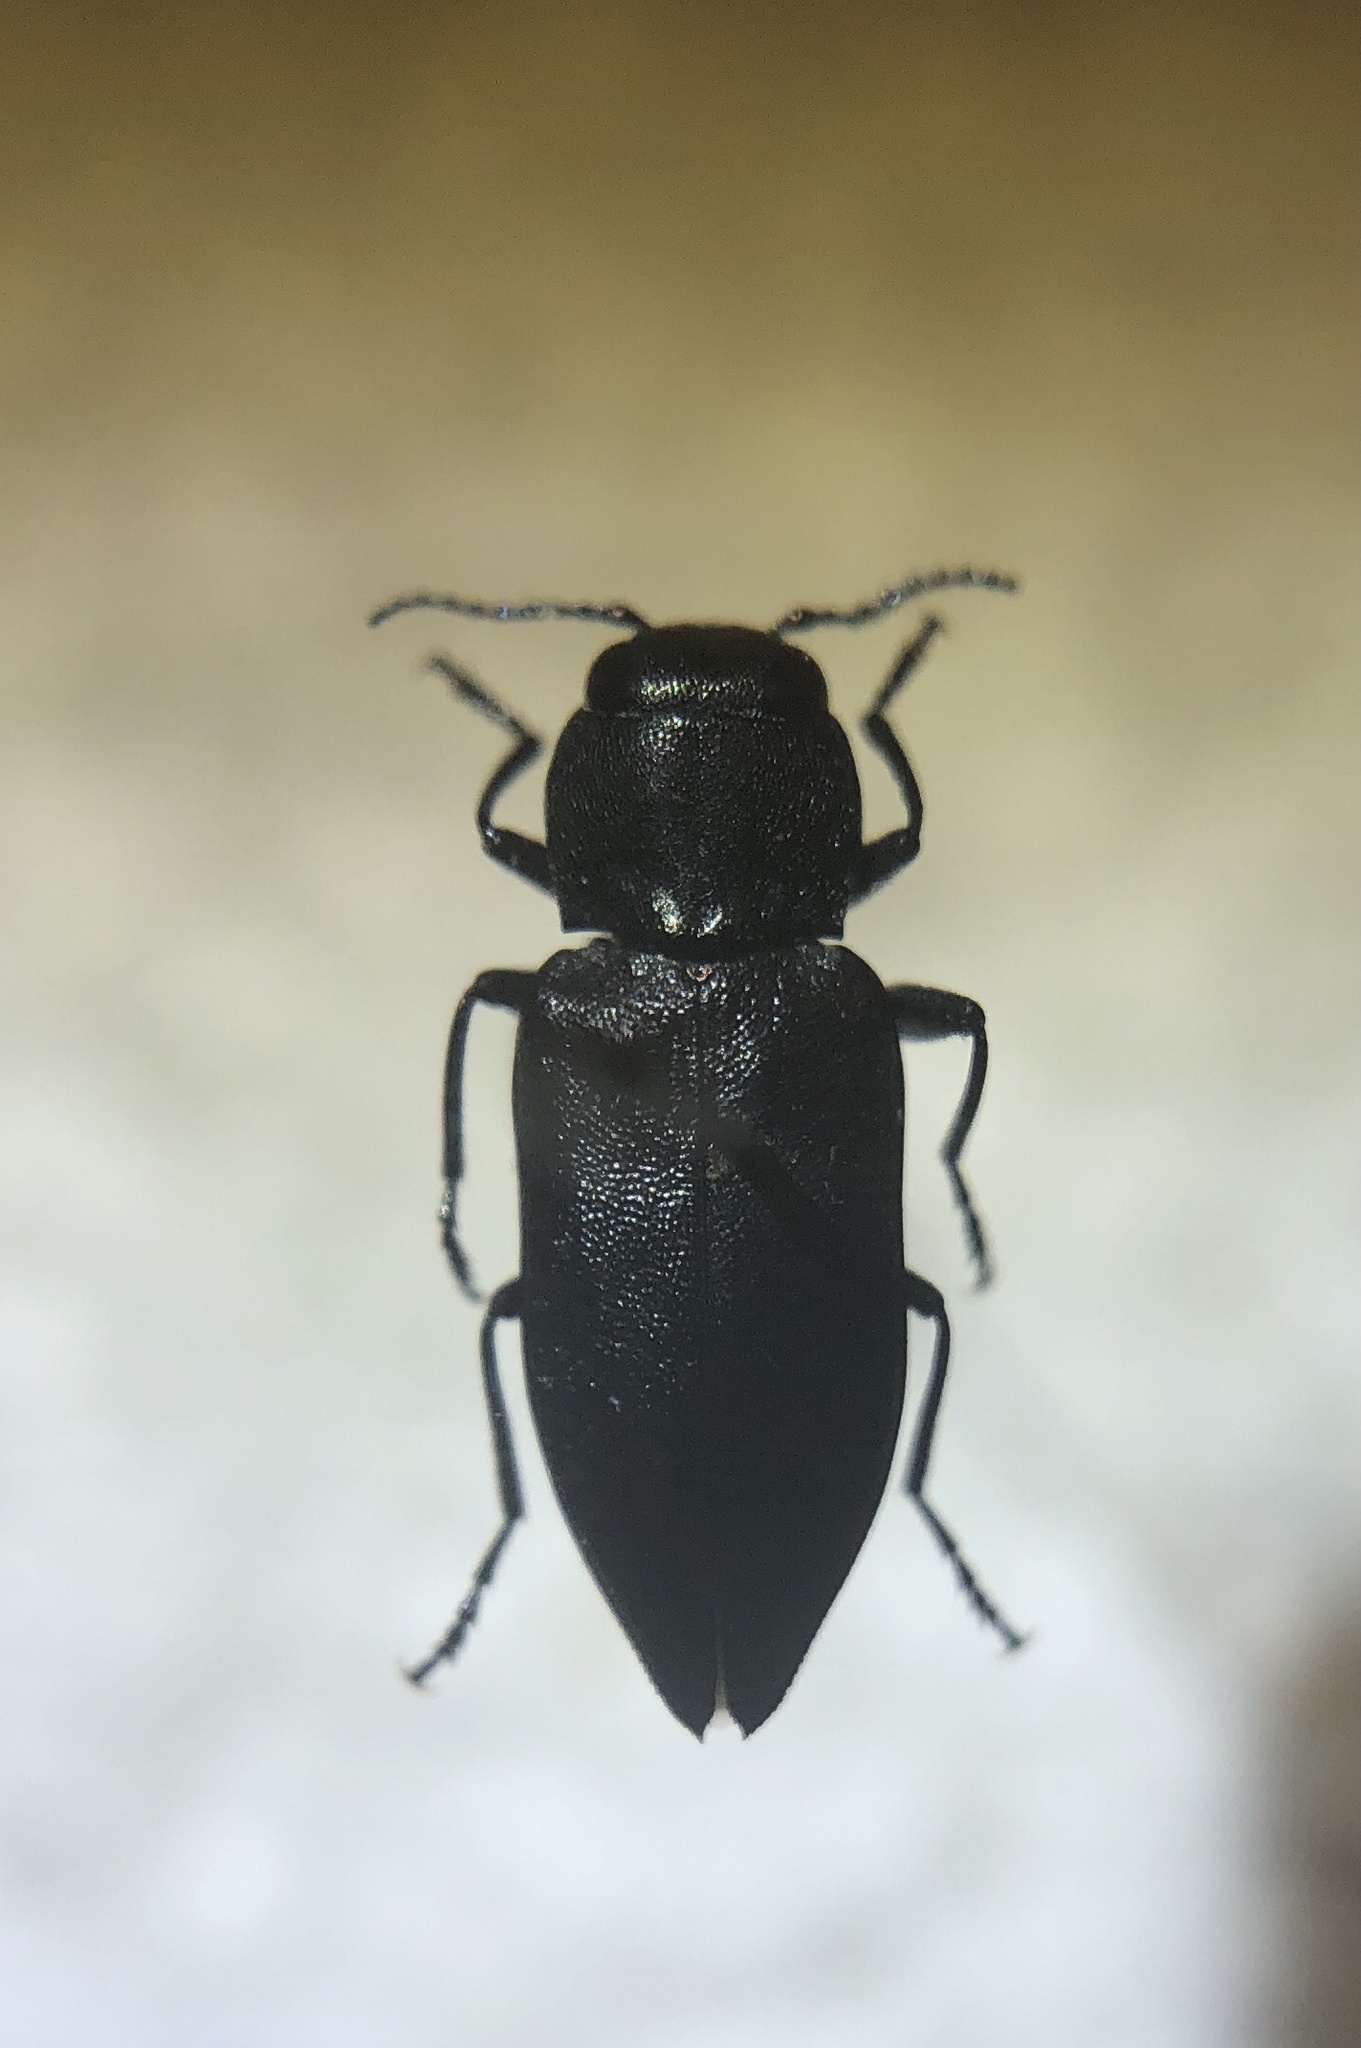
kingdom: Animalia
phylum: Arthropoda
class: Insecta
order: Coleoptera
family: Buprestidae
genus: Melanophila
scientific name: Melanophila occidentalis
